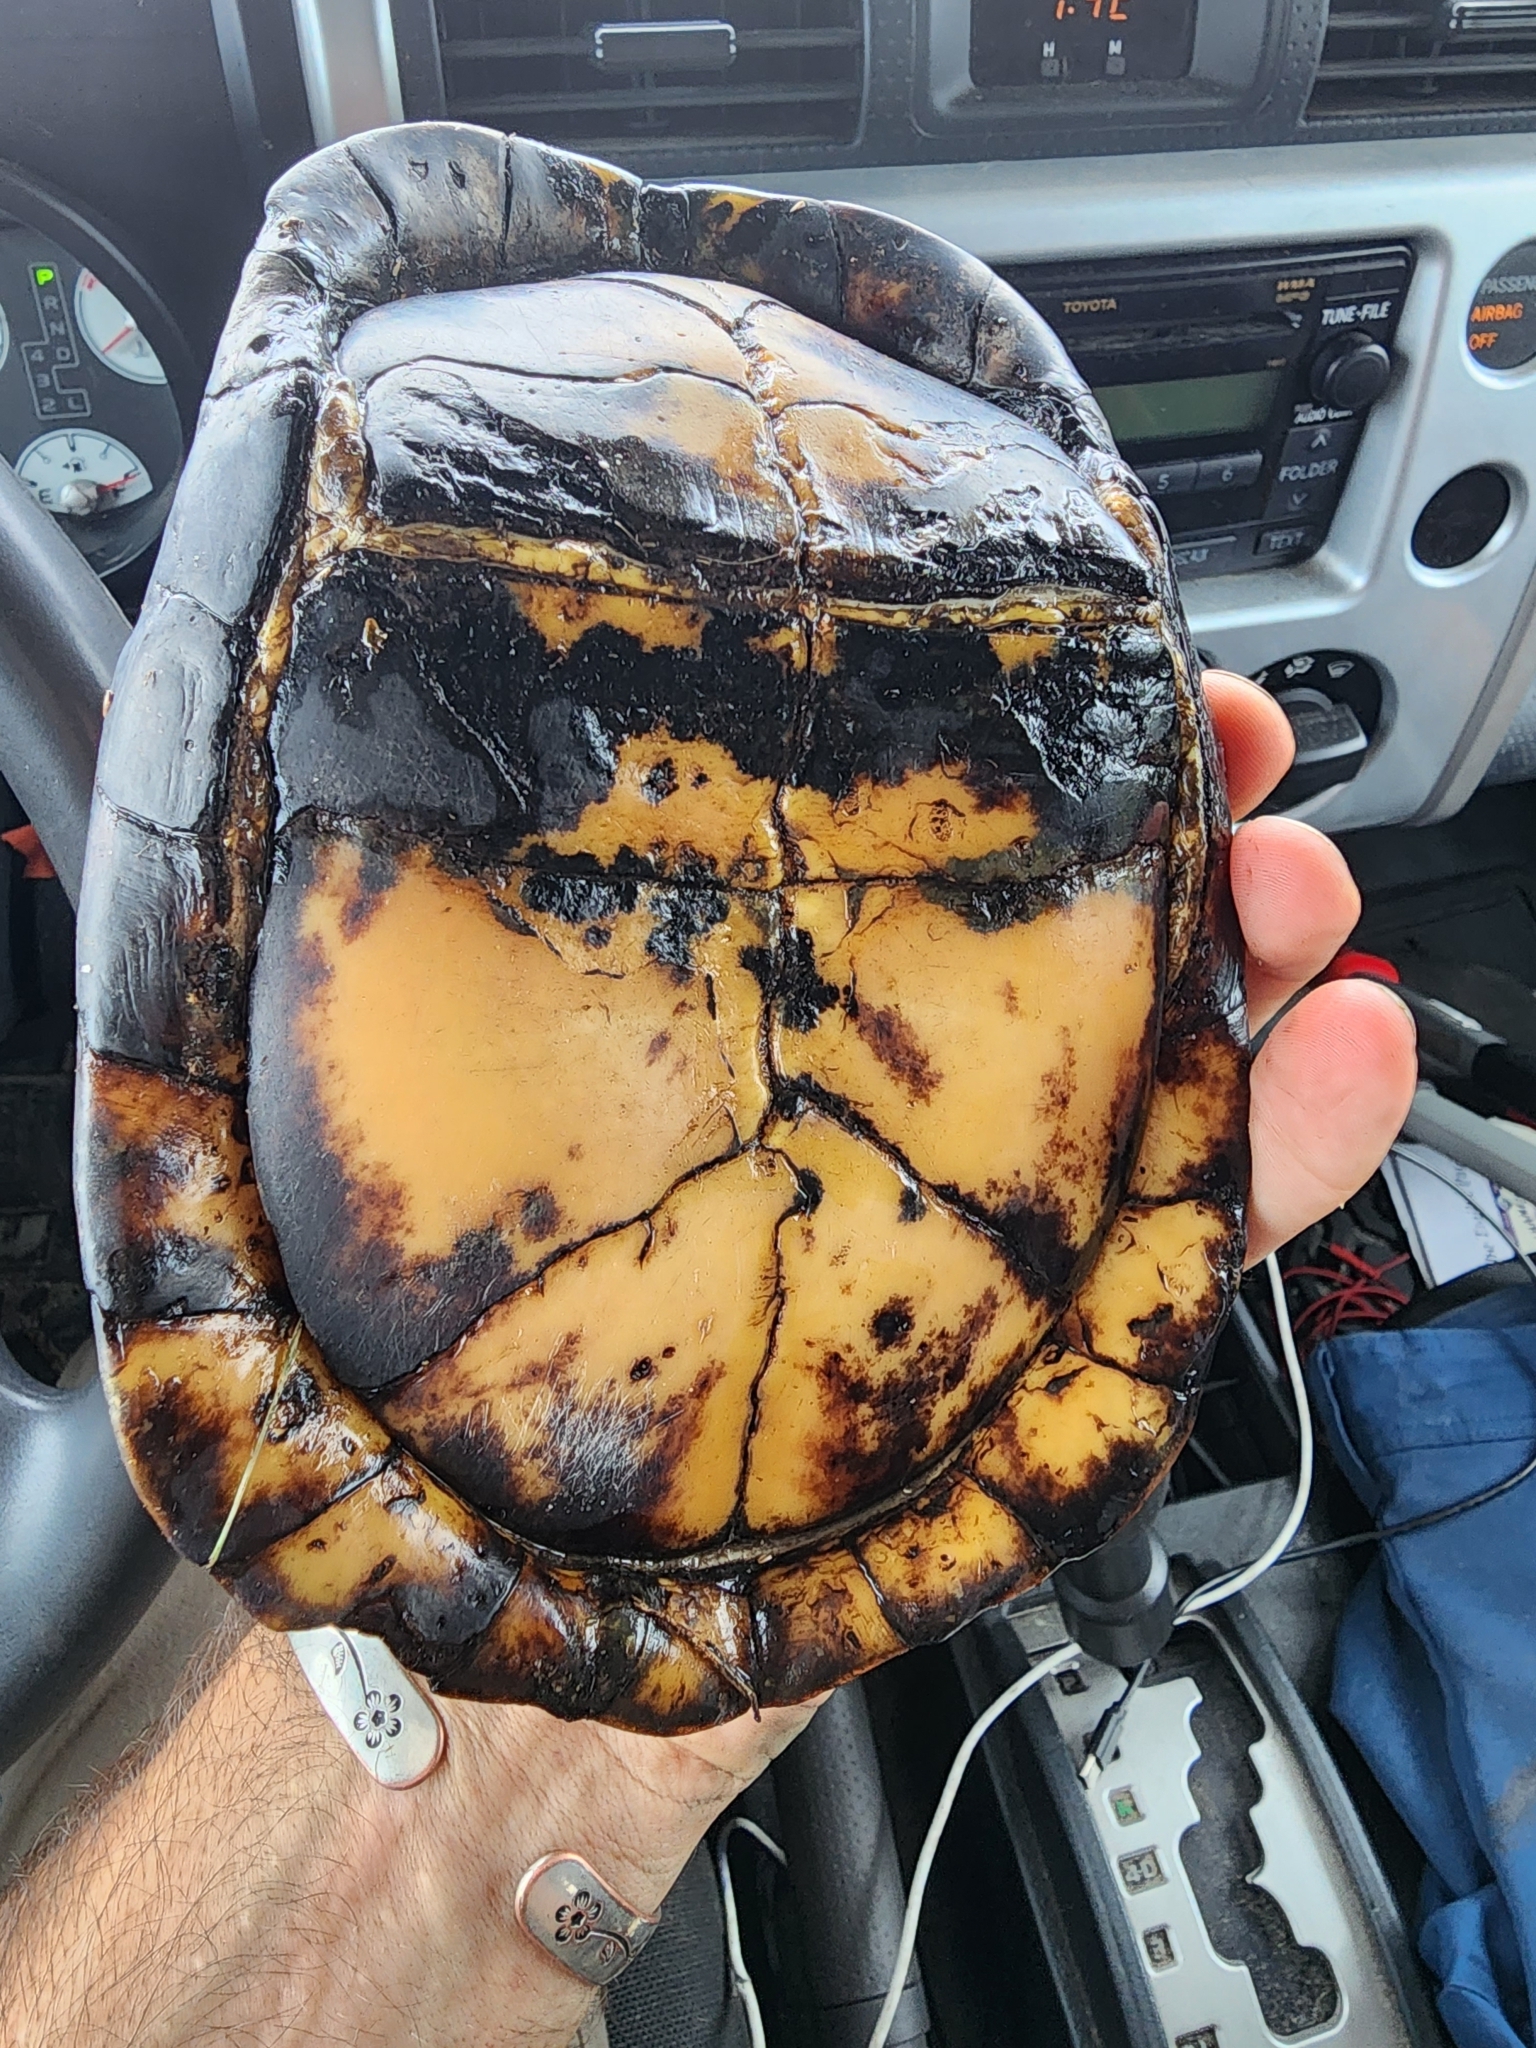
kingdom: Animalia
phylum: Chordata
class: Testudines
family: Emydidae
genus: Terrapene
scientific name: Terrapene carolina
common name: Common box turtle
